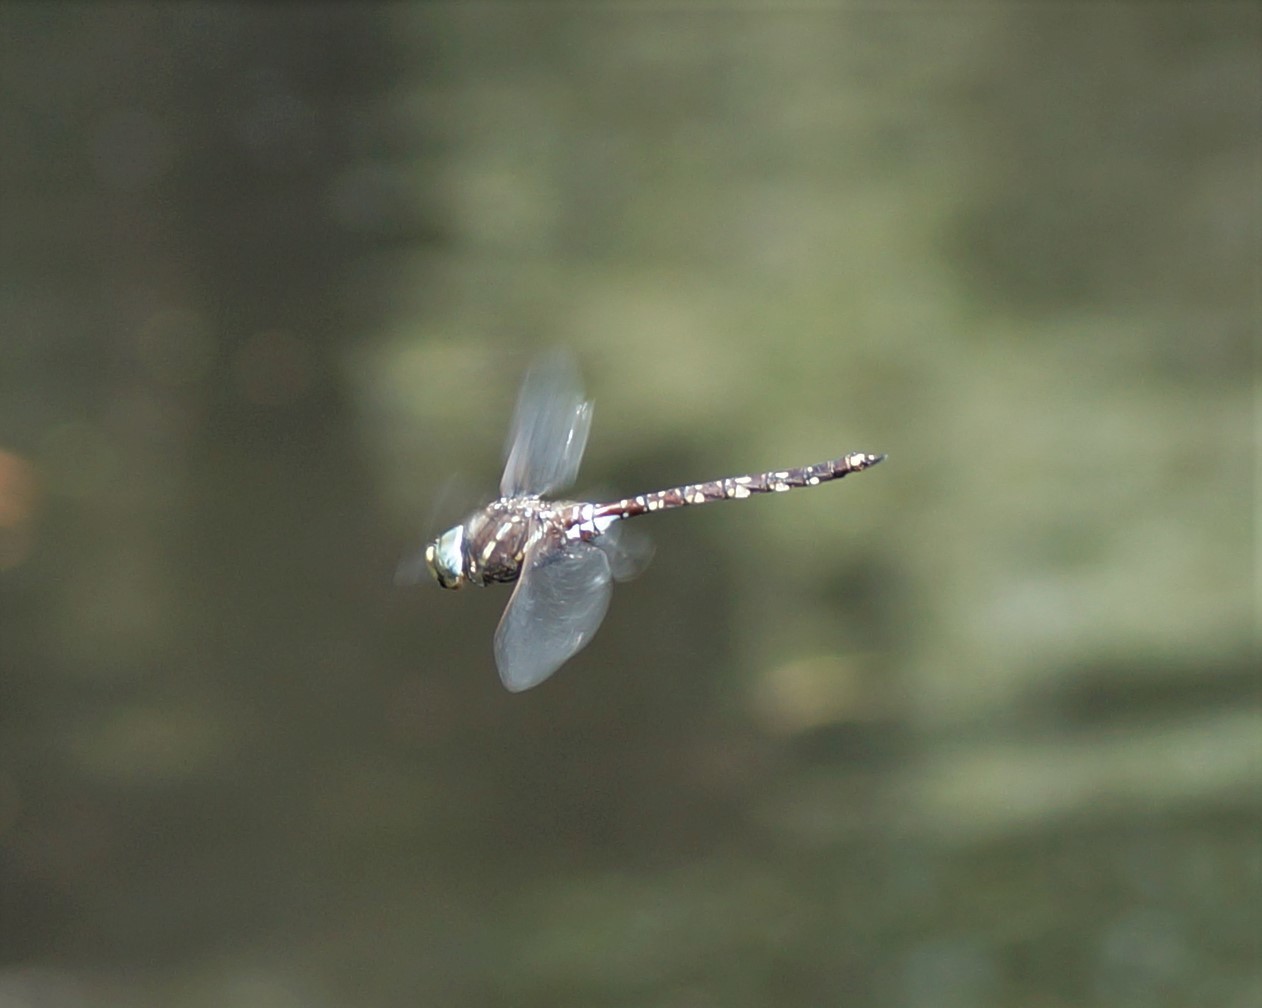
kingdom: Animalia
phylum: Arthropoda
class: Insecta
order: Odonata
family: Aeshnidae
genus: Aeshna
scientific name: Aeshna brevistyla
